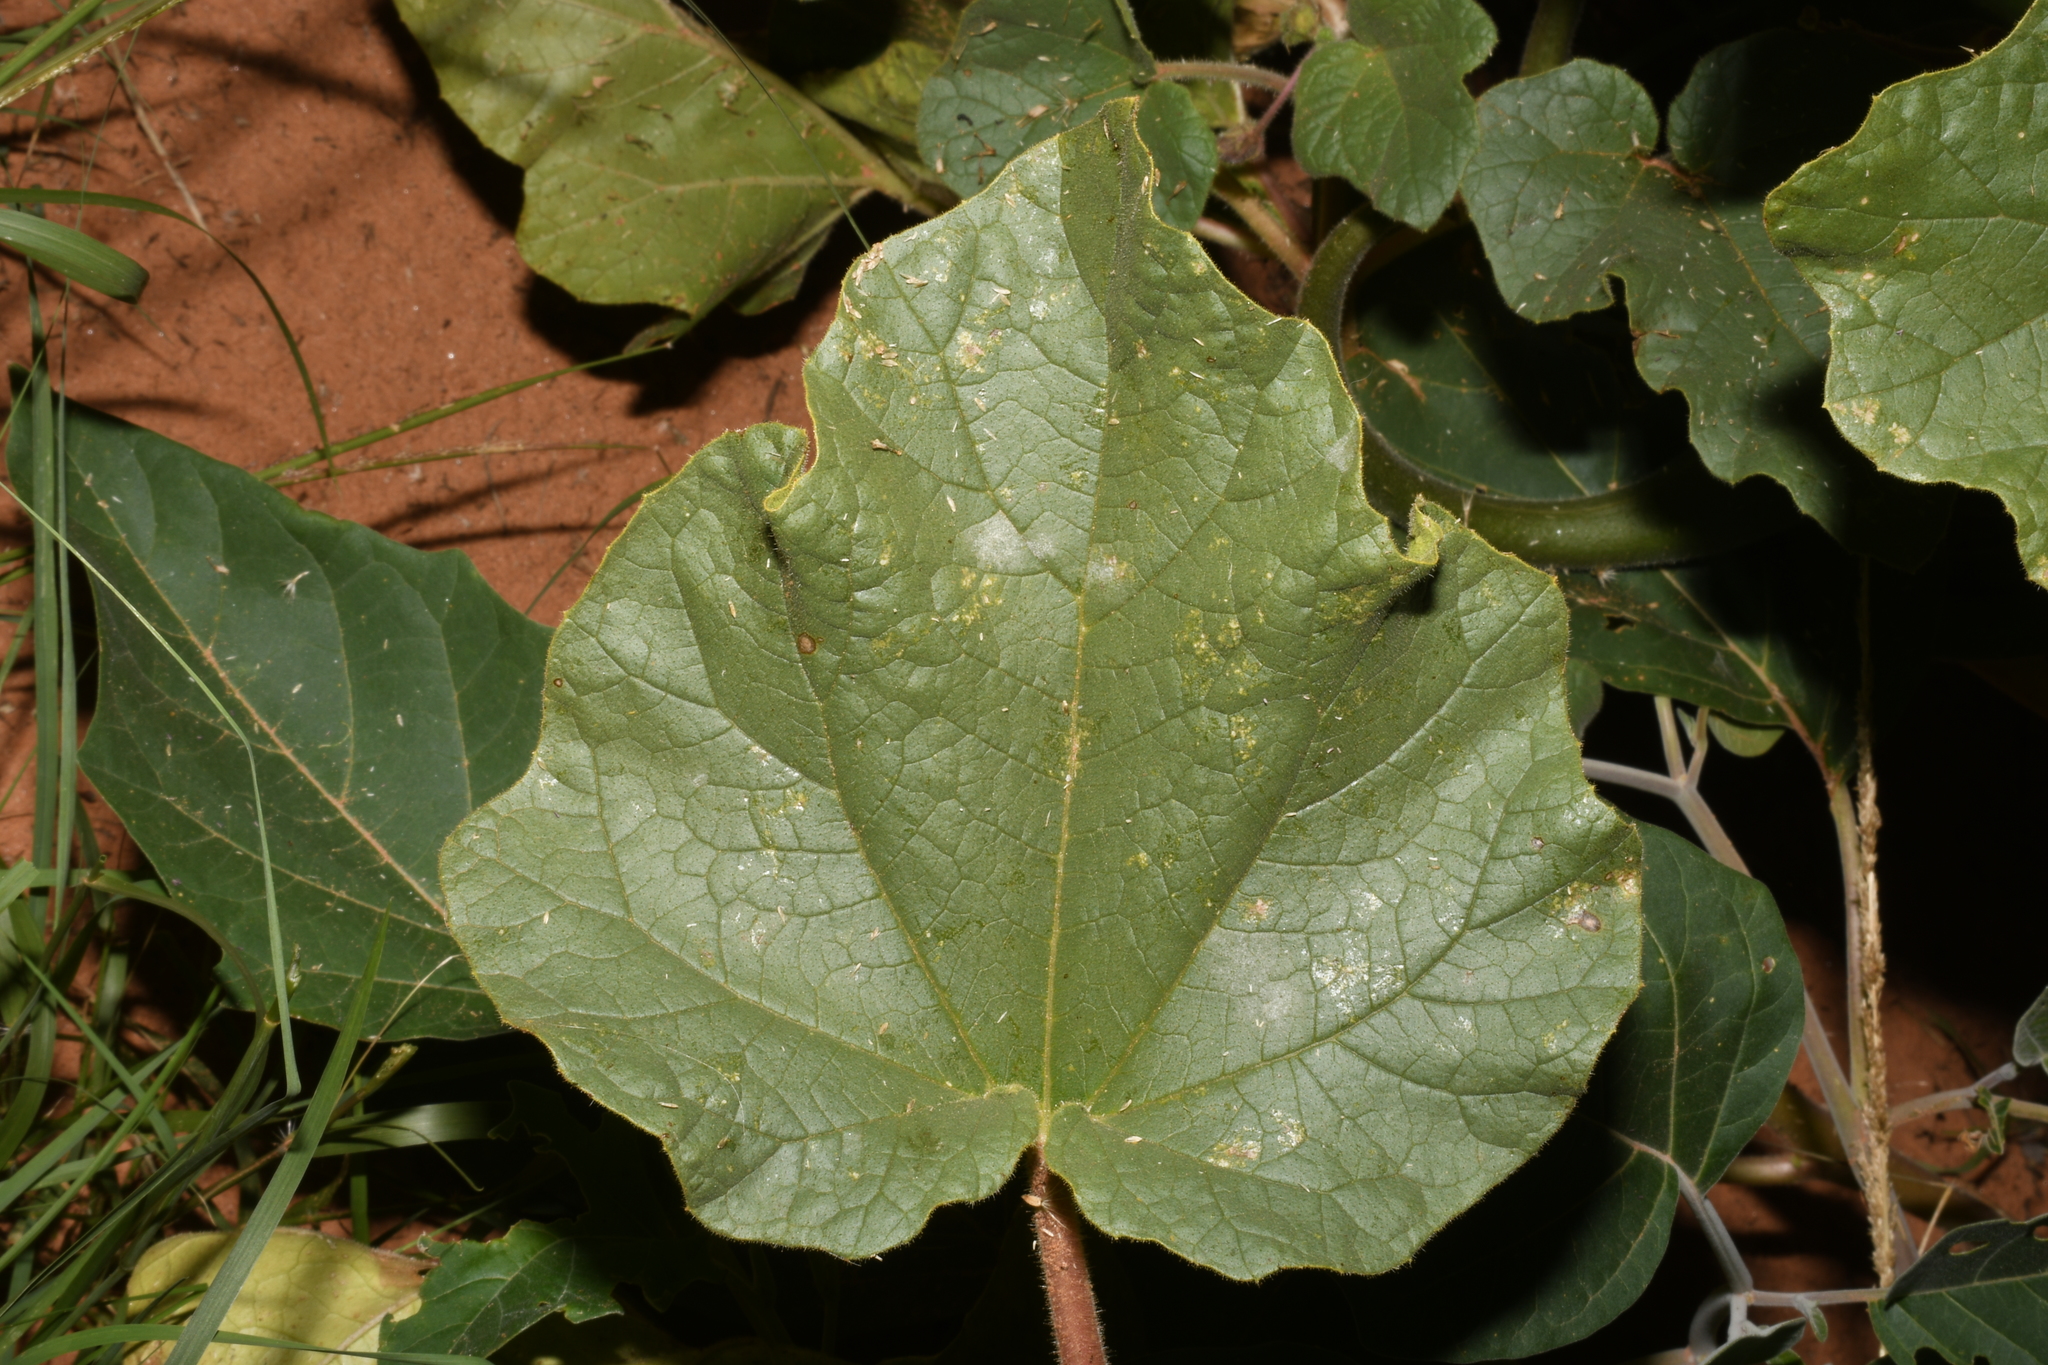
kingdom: Plantae
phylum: Tracheophyta
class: Magnoliopsida
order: Lamiales
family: Martyniaceae
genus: Proboscidea
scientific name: Proboscidea parviflora
